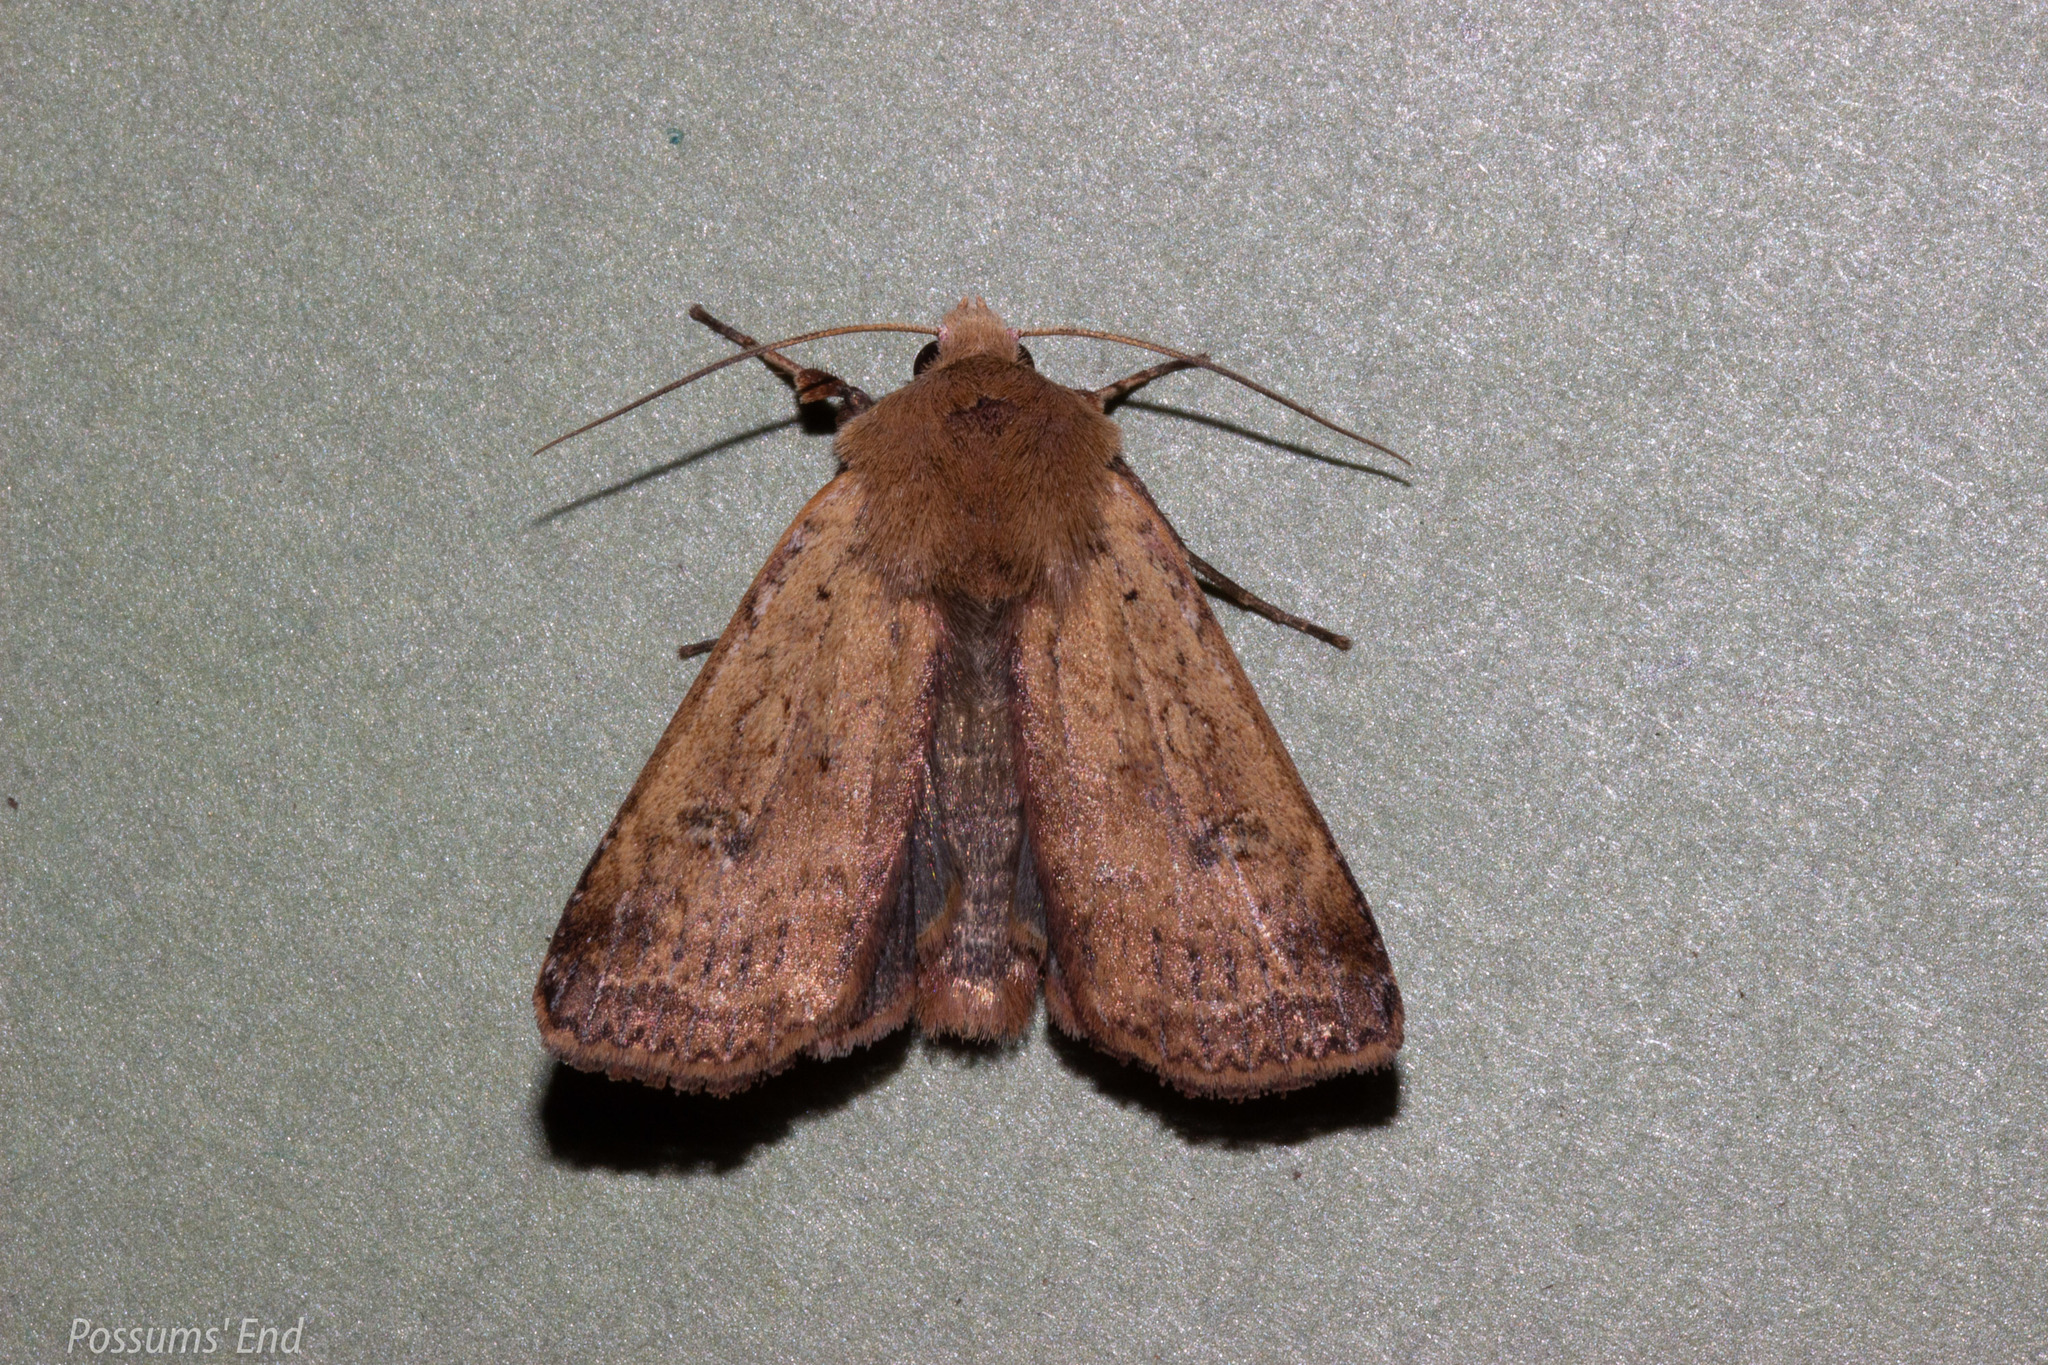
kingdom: Animalia
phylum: Arthropoda
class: Insecta
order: Lepidoptera
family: Noctuidae
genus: Diarsia
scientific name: Diarsia intermixta
